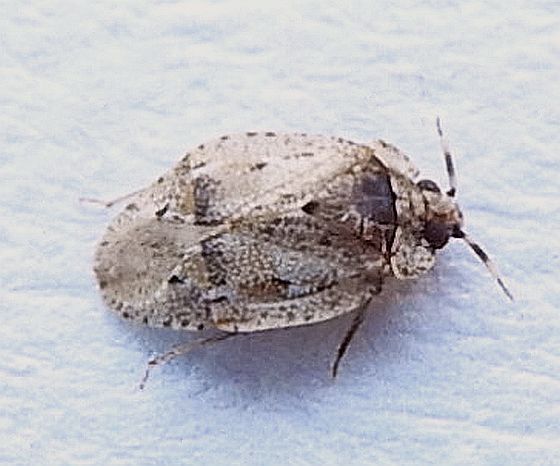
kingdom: Animalia
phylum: Arthropoda
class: Insecta
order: Hemiptera
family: Miridae
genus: Diphleps
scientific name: Diphleps unica
